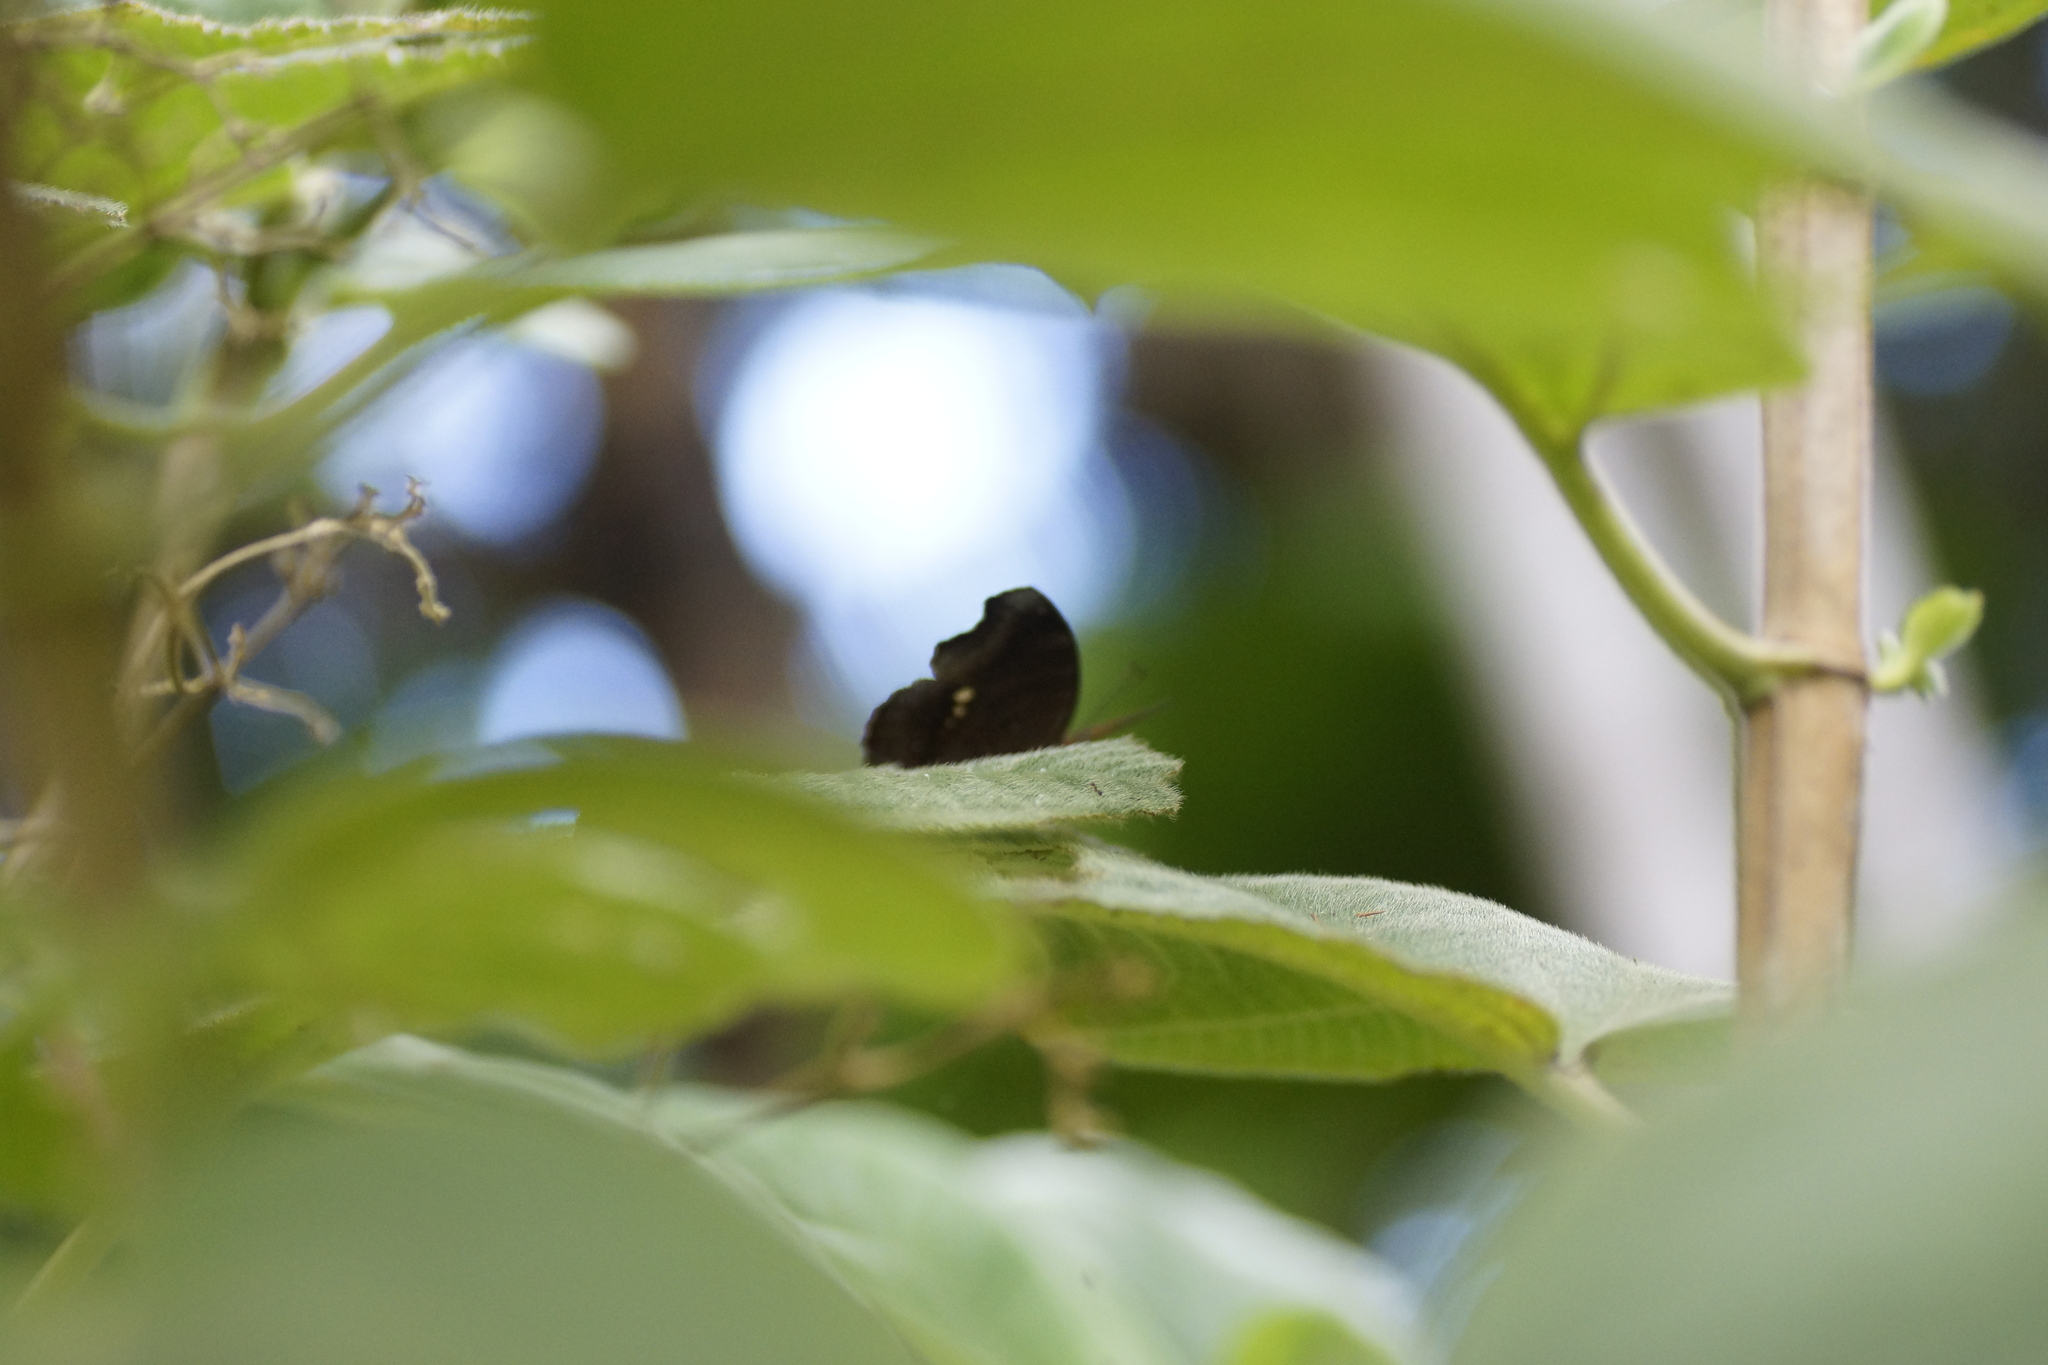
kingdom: Animalia
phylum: Arthropoda
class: Insecta
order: Lepidoptera
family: Nymphalidae
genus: Junonia
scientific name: Junonia hedonia
